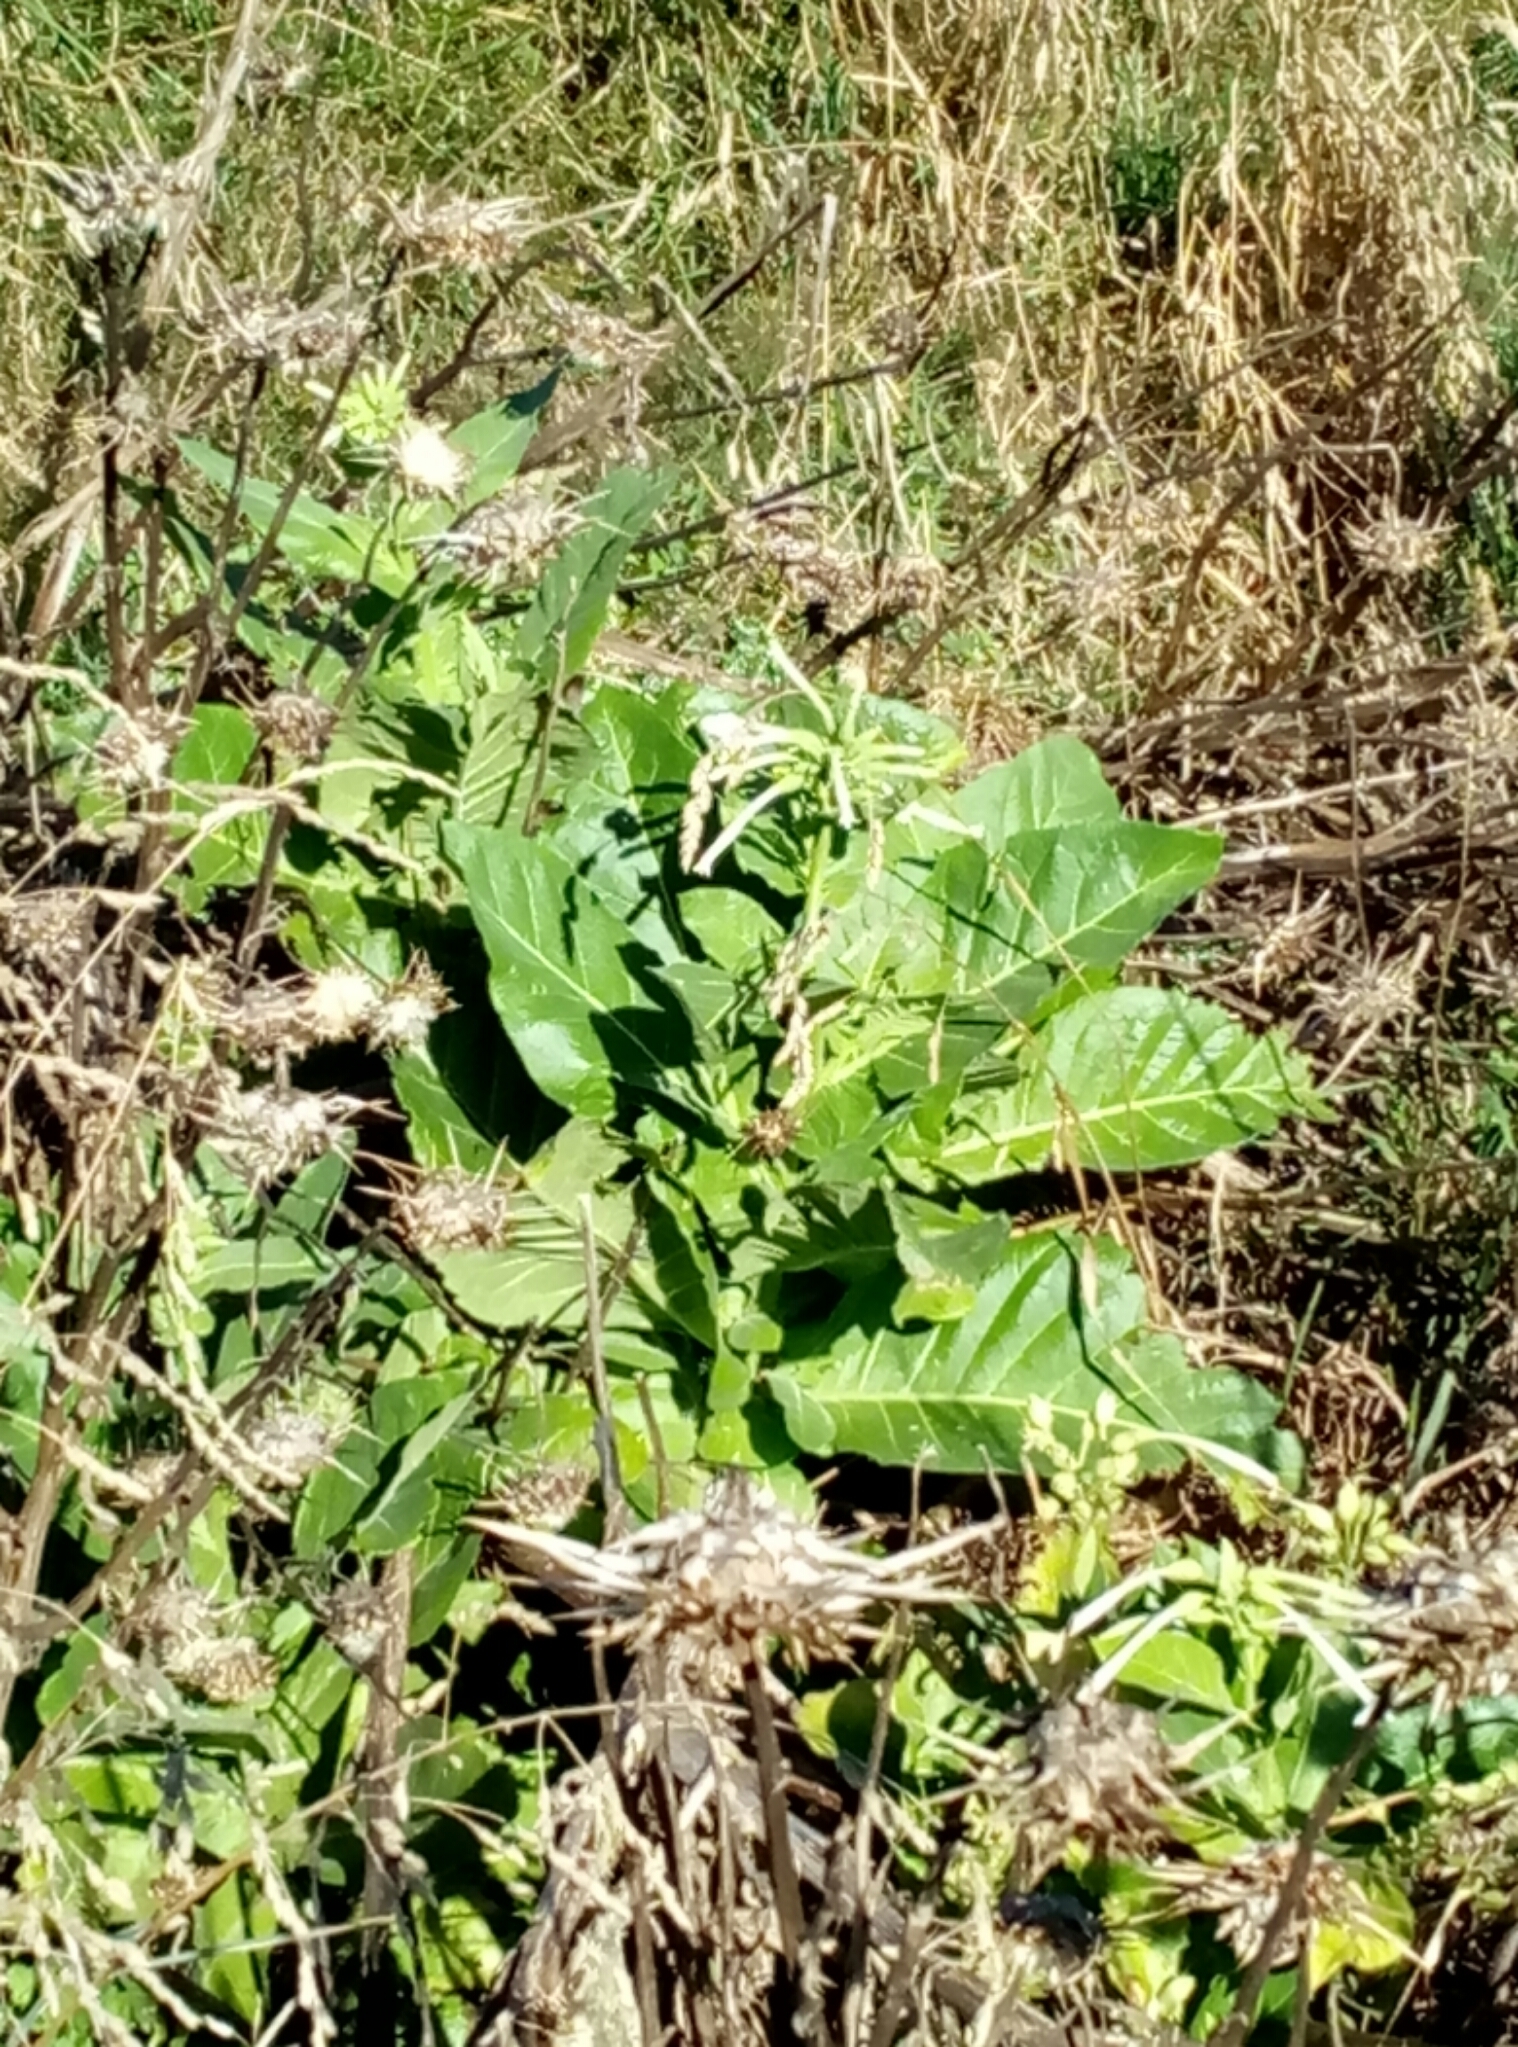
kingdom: Plantae
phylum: Tracheophyta
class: Magnoliopsida
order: Solanales
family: Solanaceae
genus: Nicotiana
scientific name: Nicotiana sylvestris
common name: Flowering tobacco
